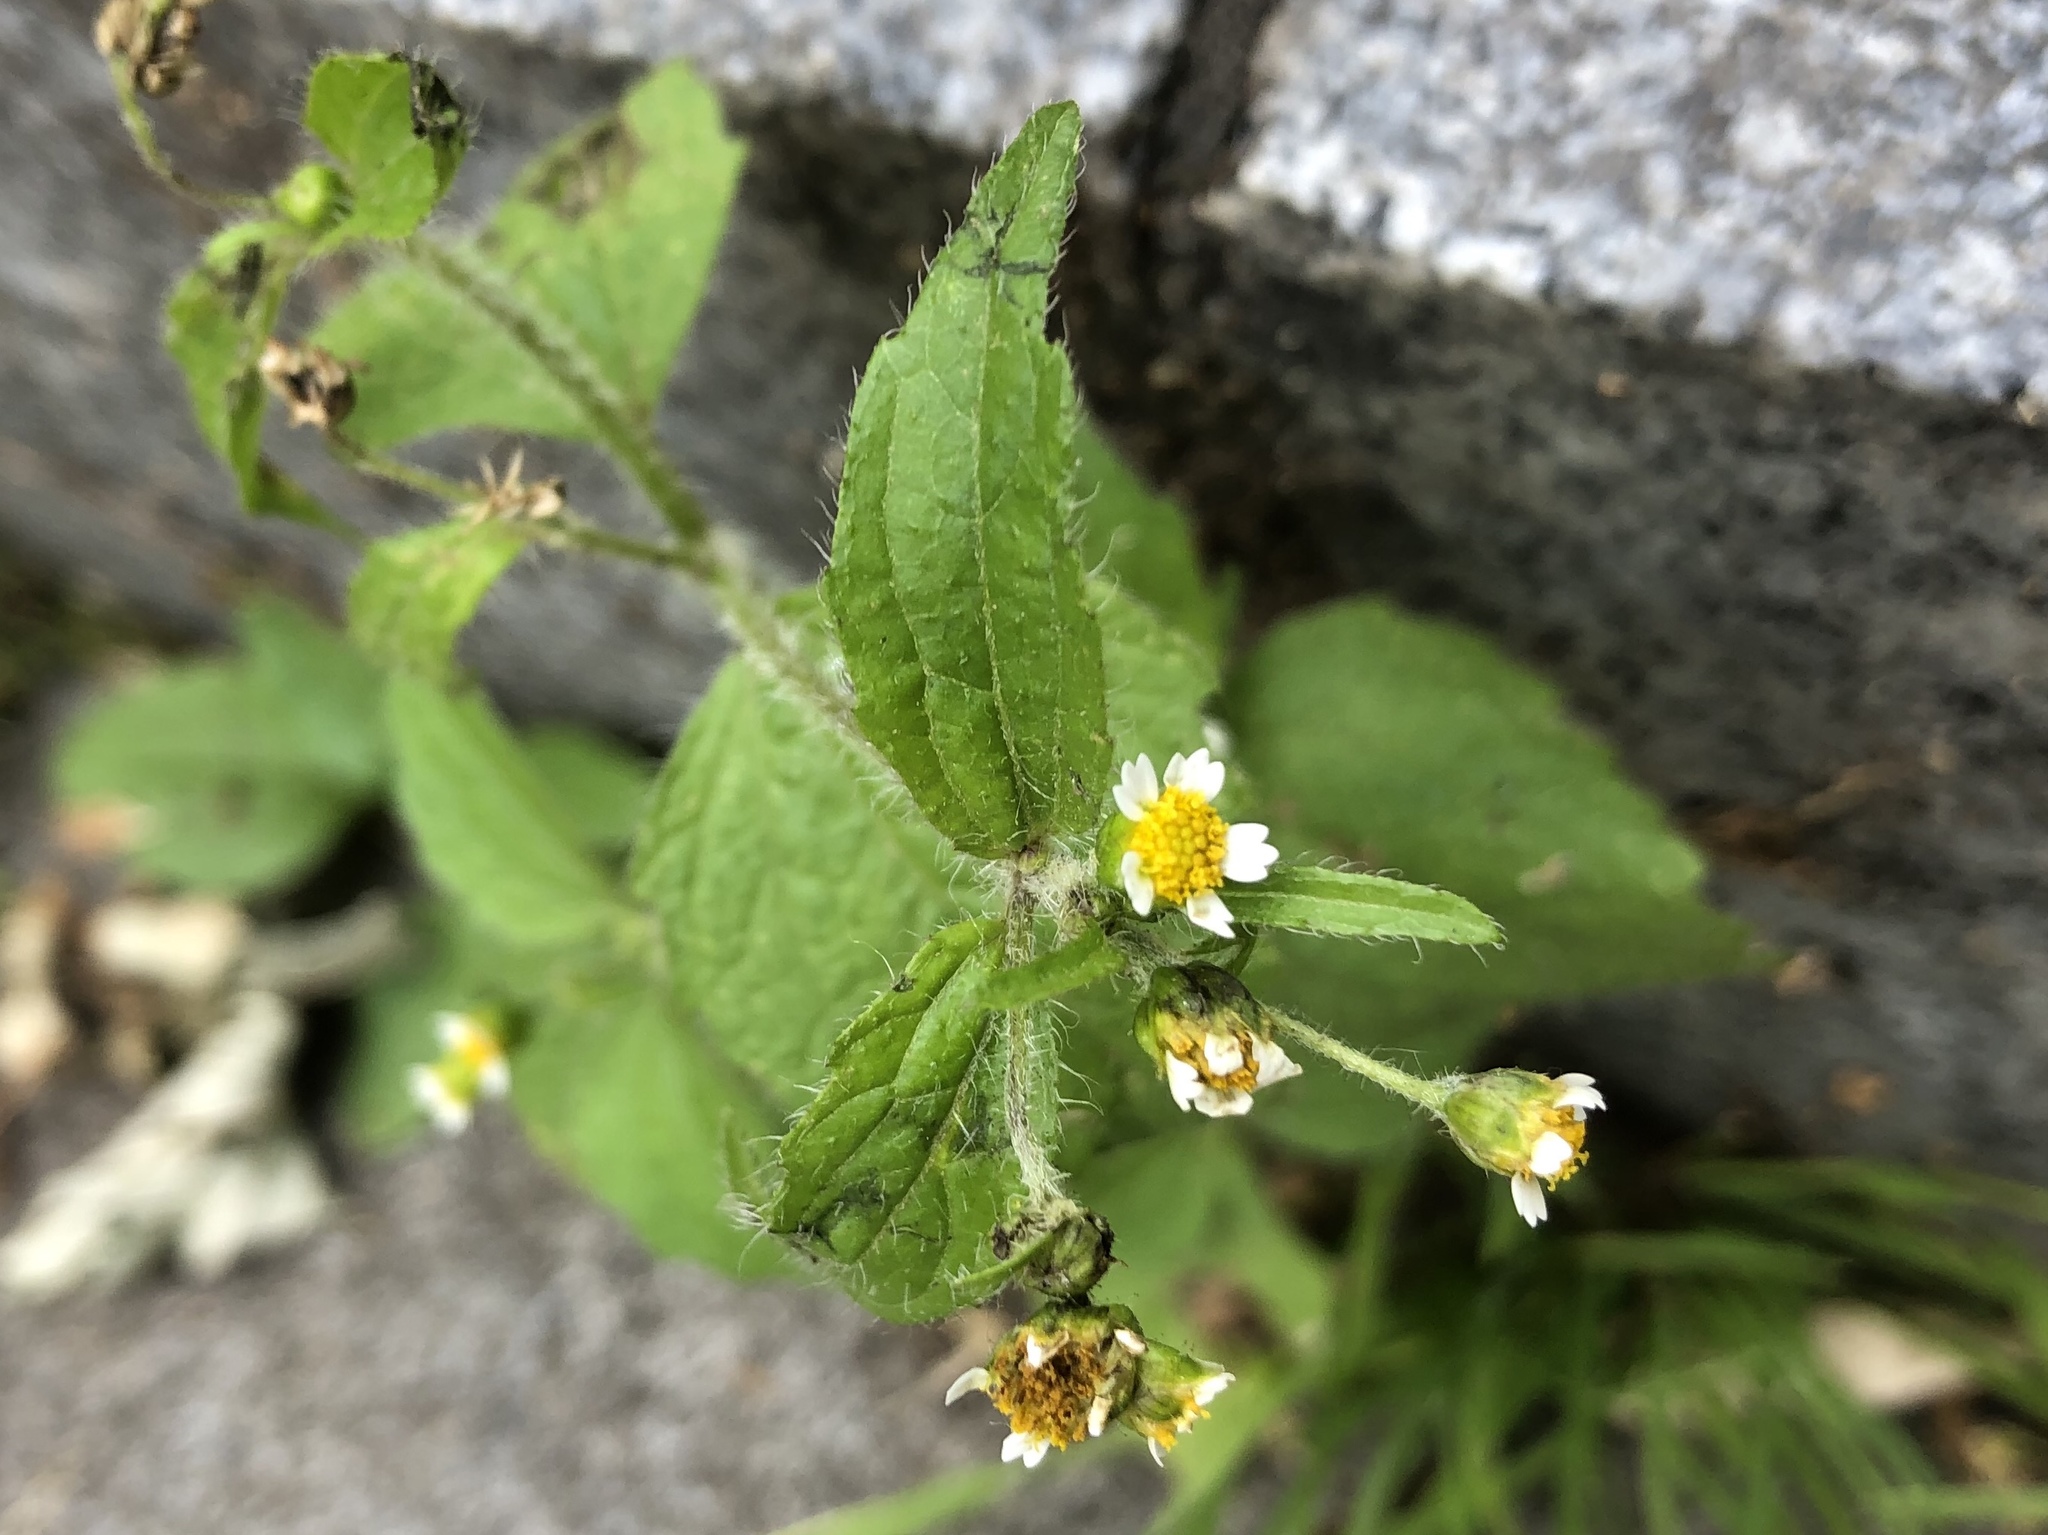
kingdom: Plantae
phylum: Tracheophyta
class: Magnoliopsida
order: Asterales
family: Asteraceae
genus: Galinsoga
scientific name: Galinsoga quadriradiata
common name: Shaggy soldier
